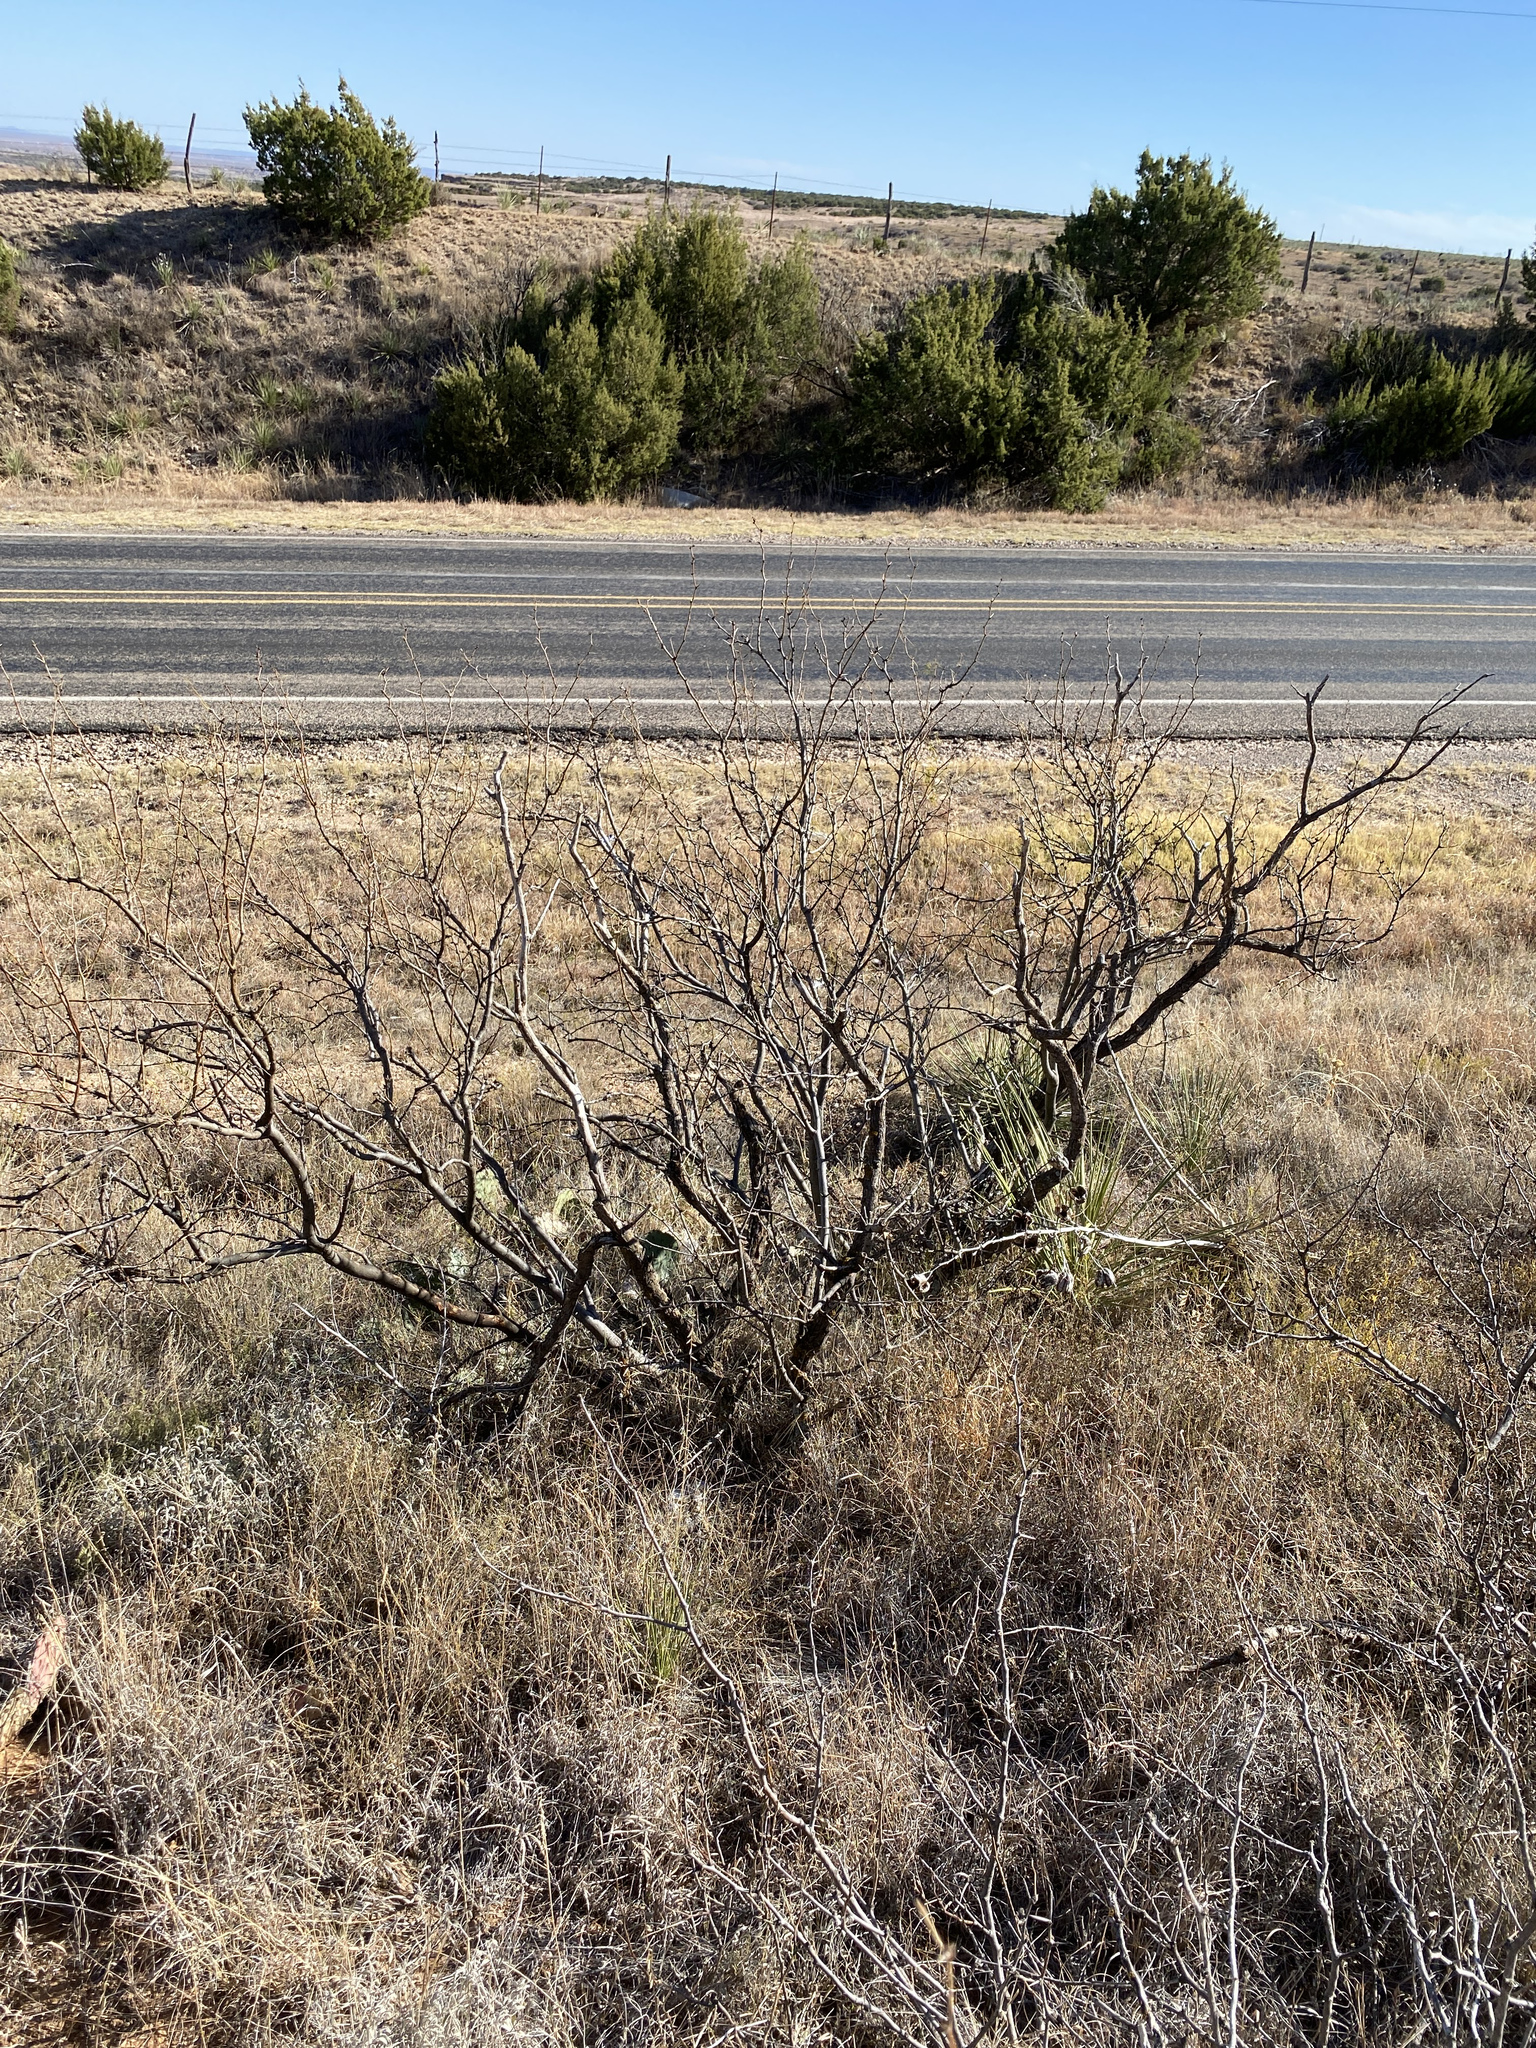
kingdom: Plantae
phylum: Tracheophyta
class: Magnoliopsida
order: Fabales
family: Fabaceae
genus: Prosopis
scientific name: Prosopis glandulosa
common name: Honey mesquite
